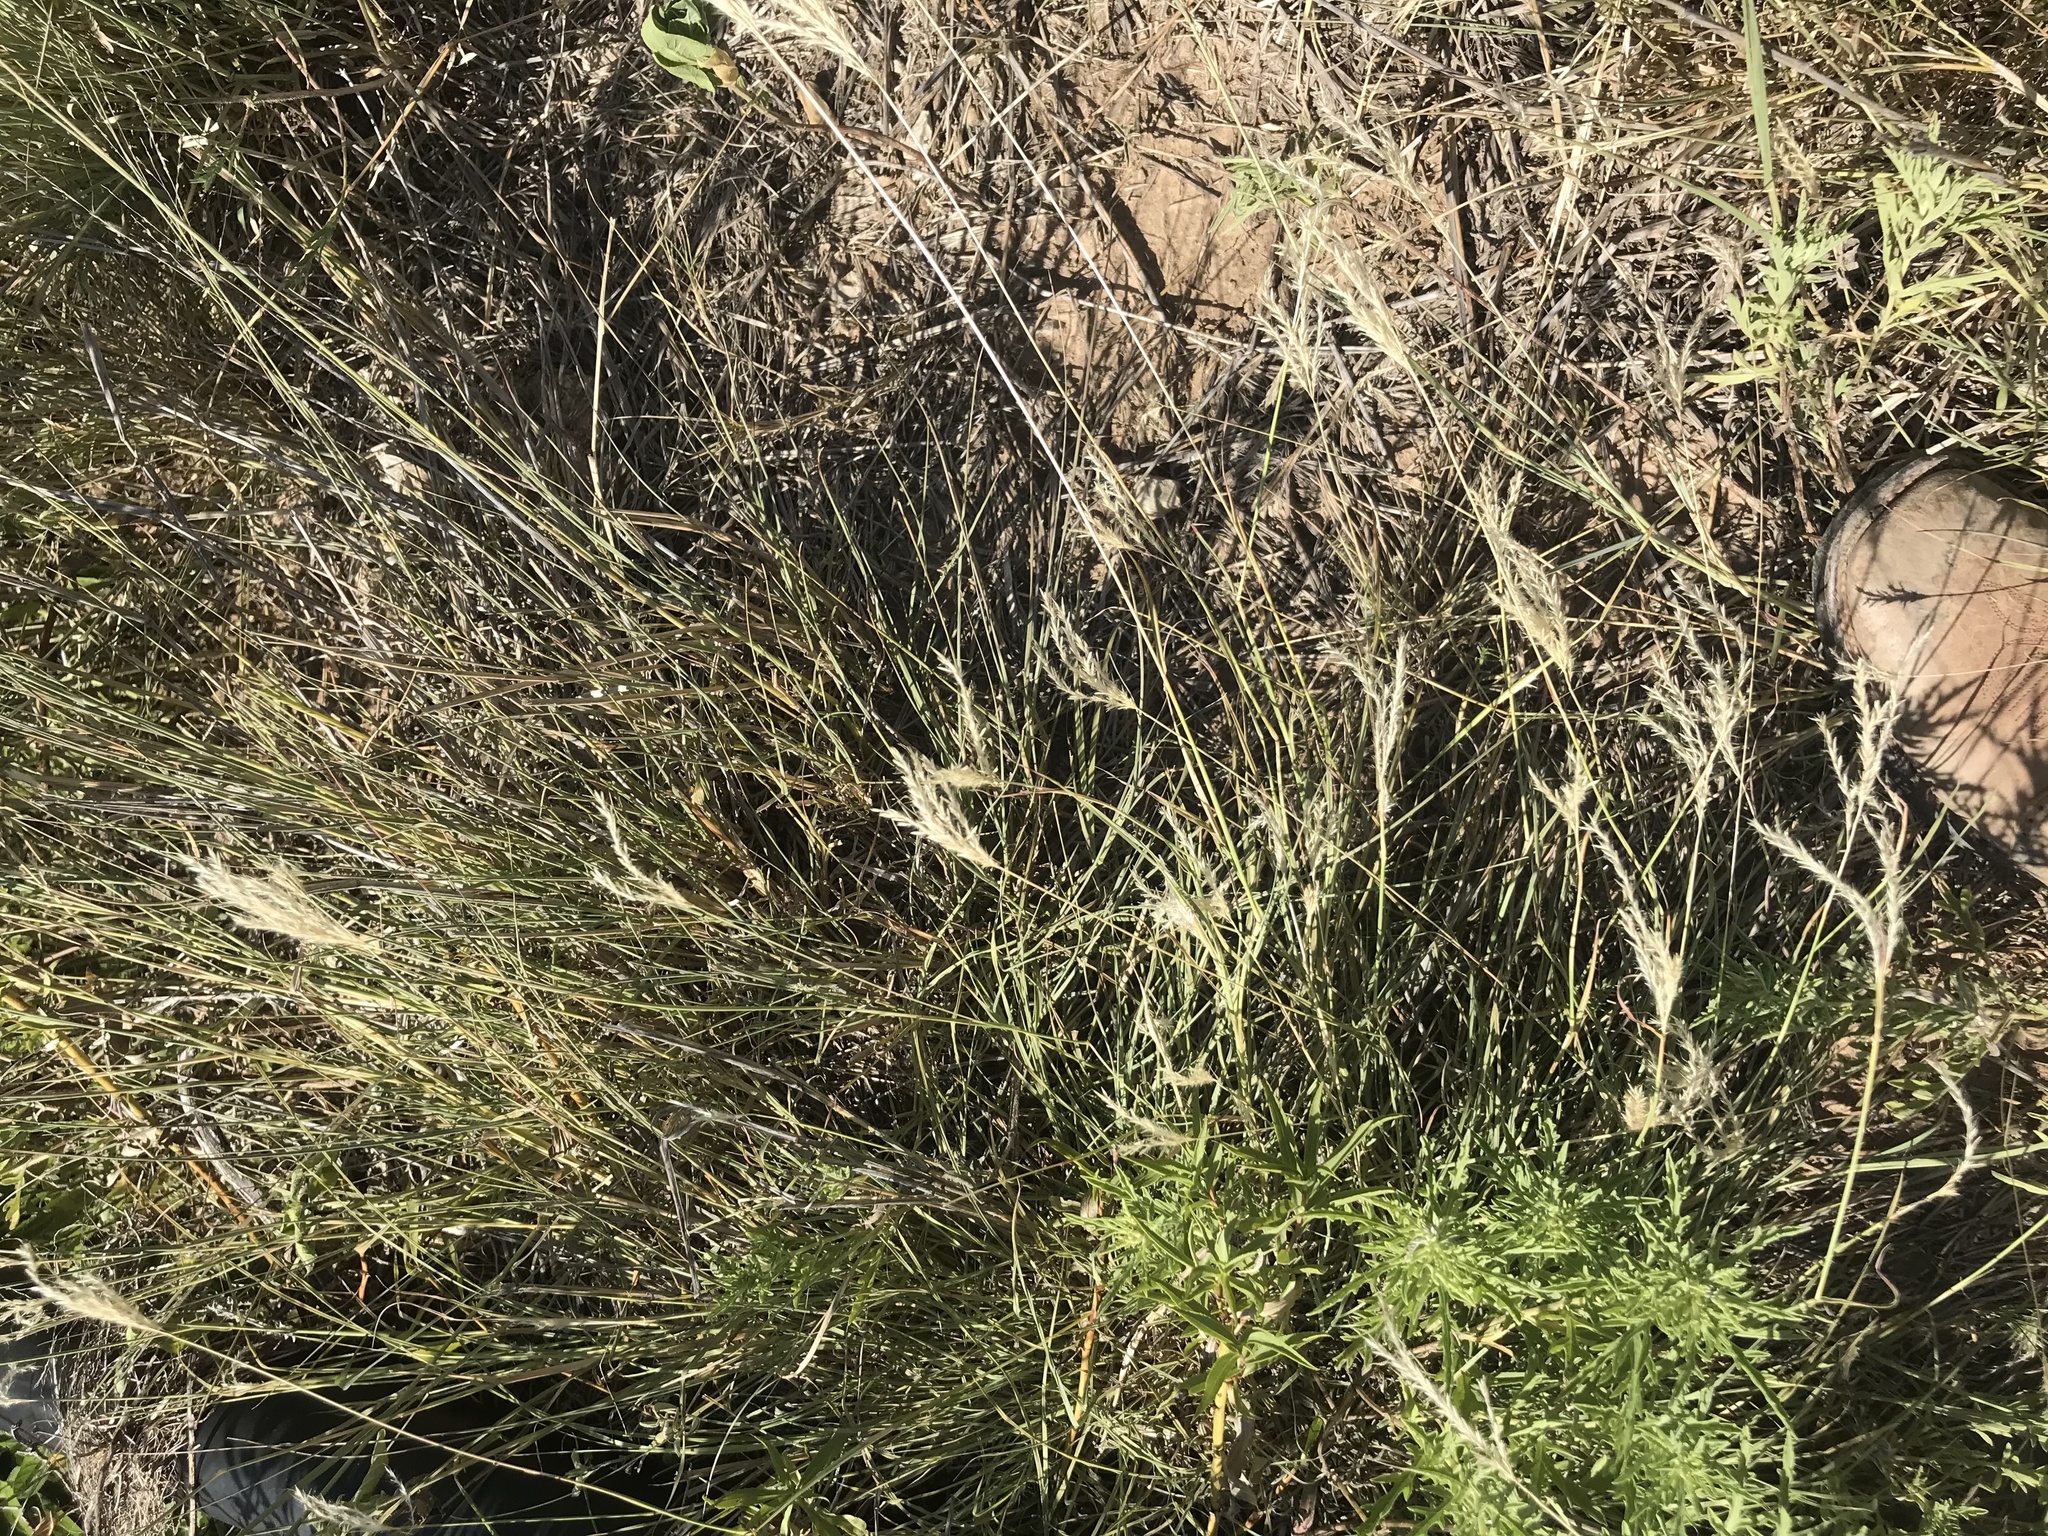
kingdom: Plantae
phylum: Tracheophyta
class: Liliopsida
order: Poales
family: Poaceae
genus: Bothriochloa
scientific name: Bothriochloa ischaemum
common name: Yellow bluestem
